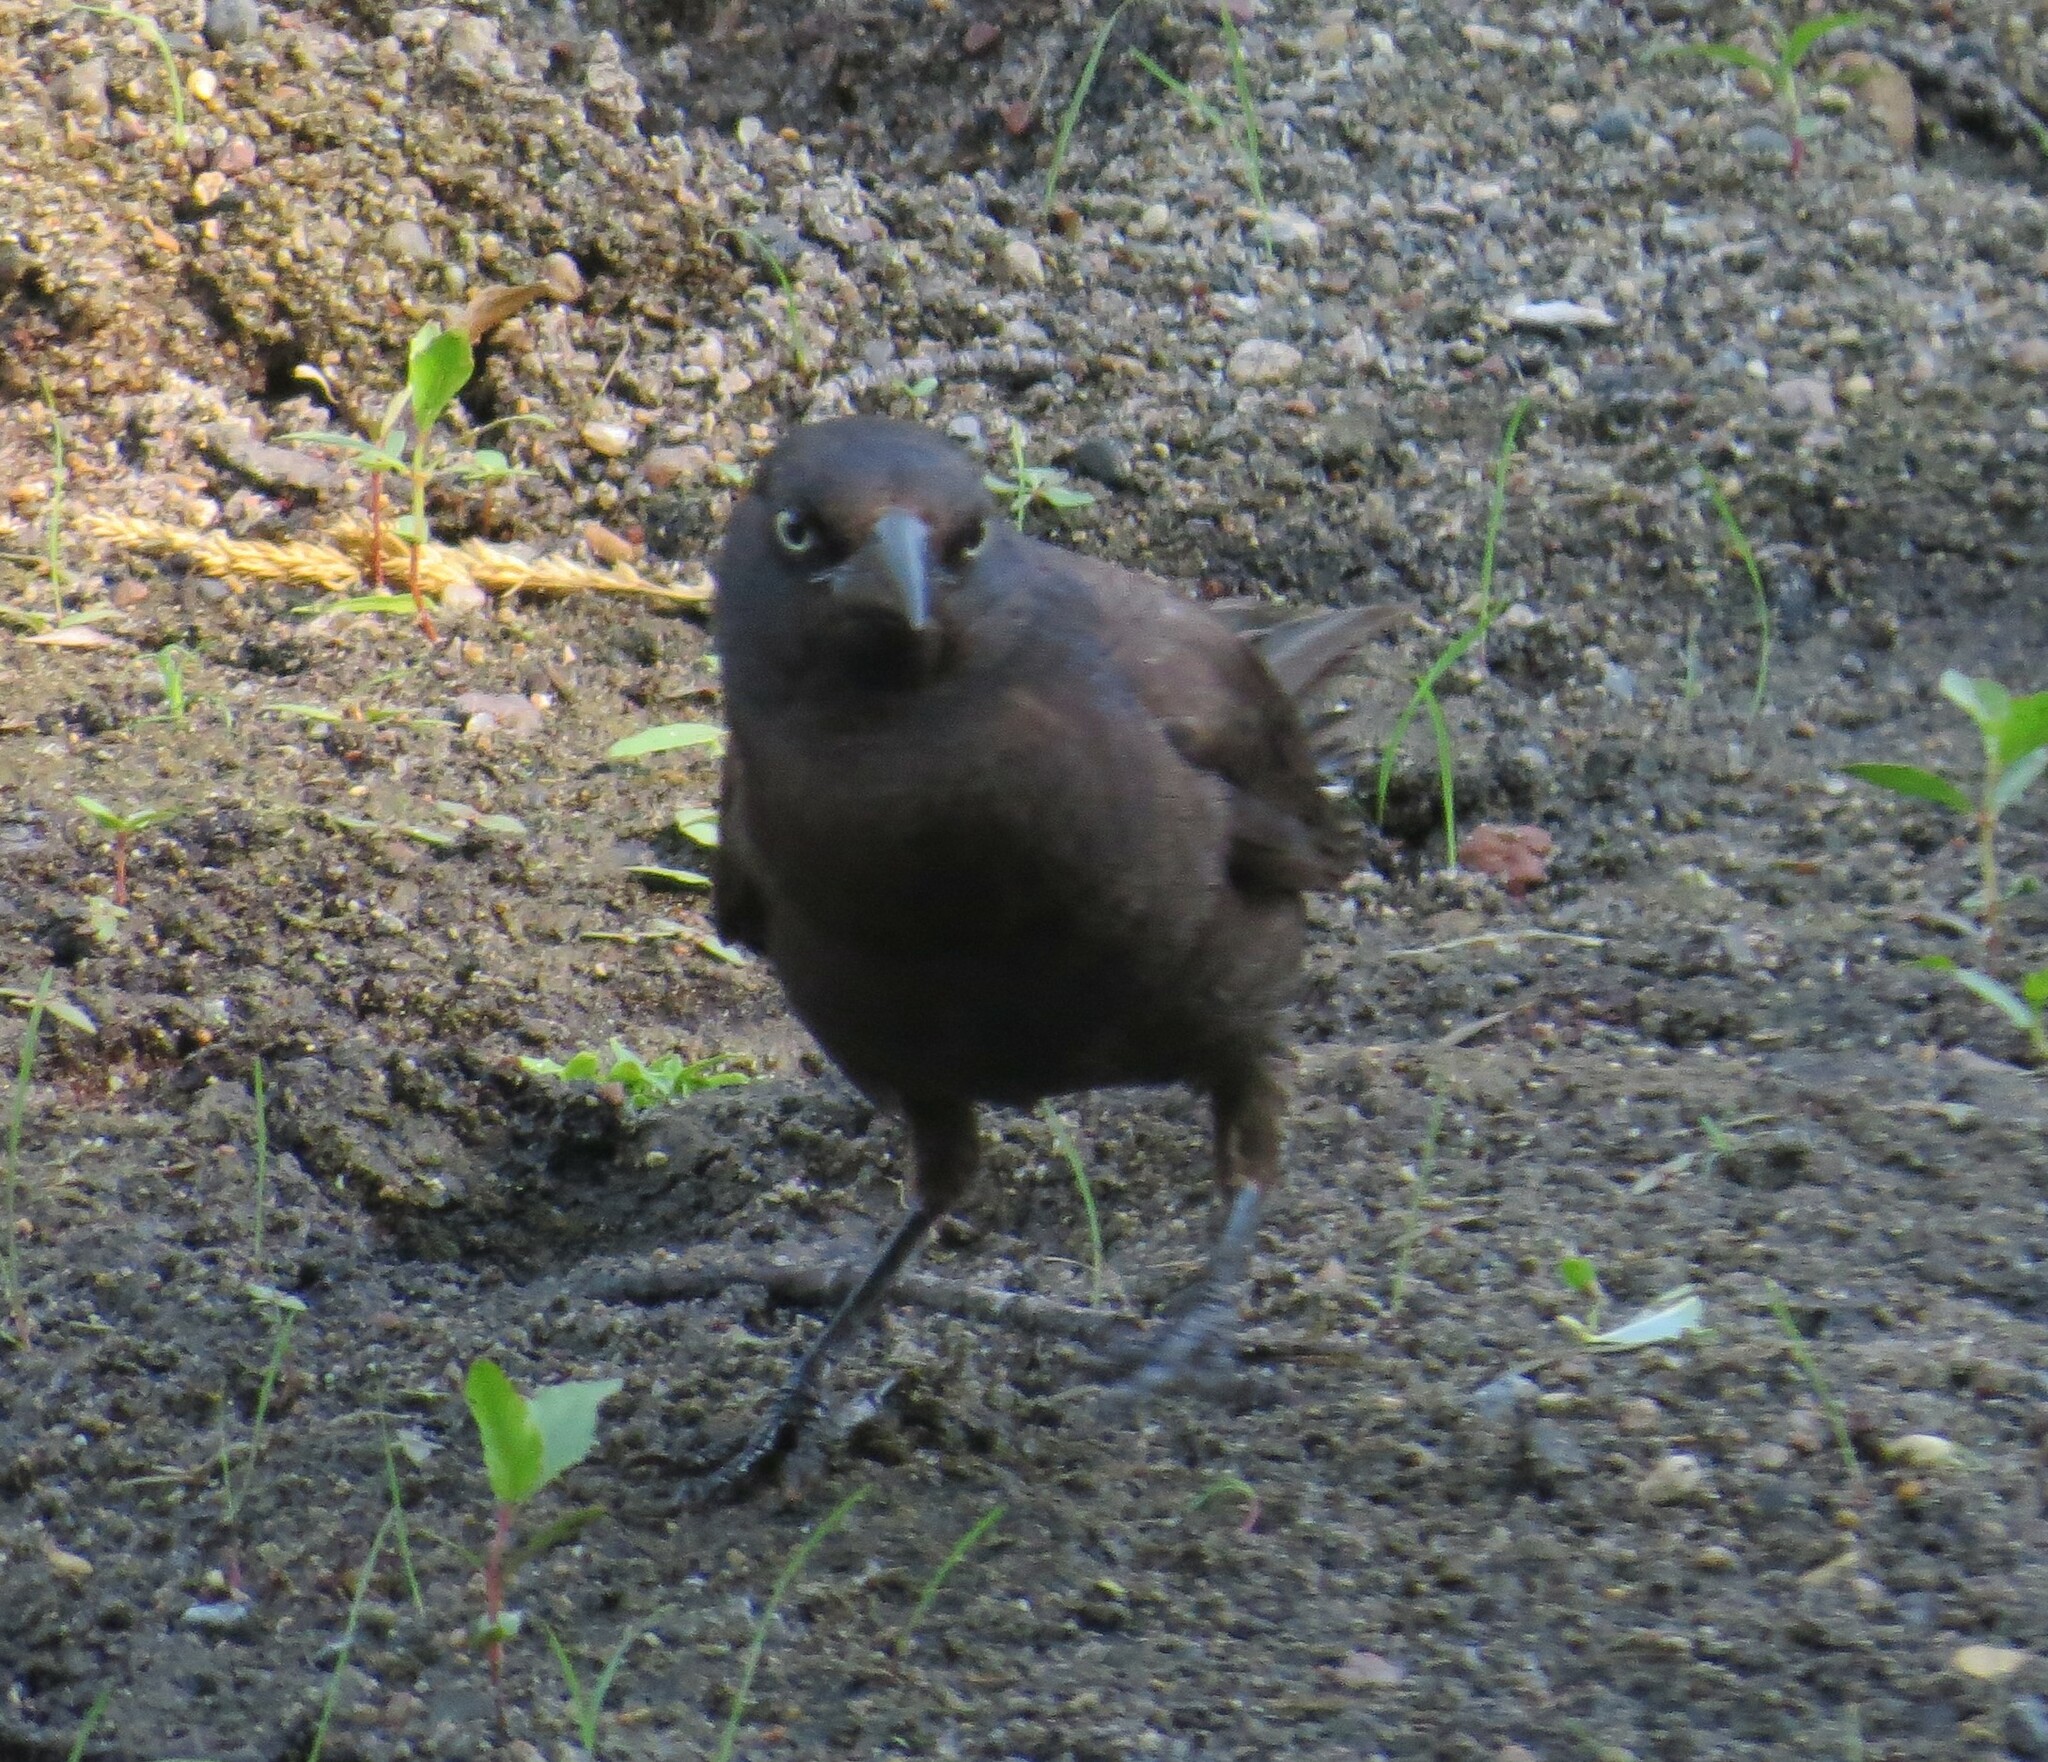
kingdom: Animalia
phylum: Chordata
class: Aves
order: Passeriformes
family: Icteridae
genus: Quiscalus
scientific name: Quiscalus quiscula
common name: Common grackle
